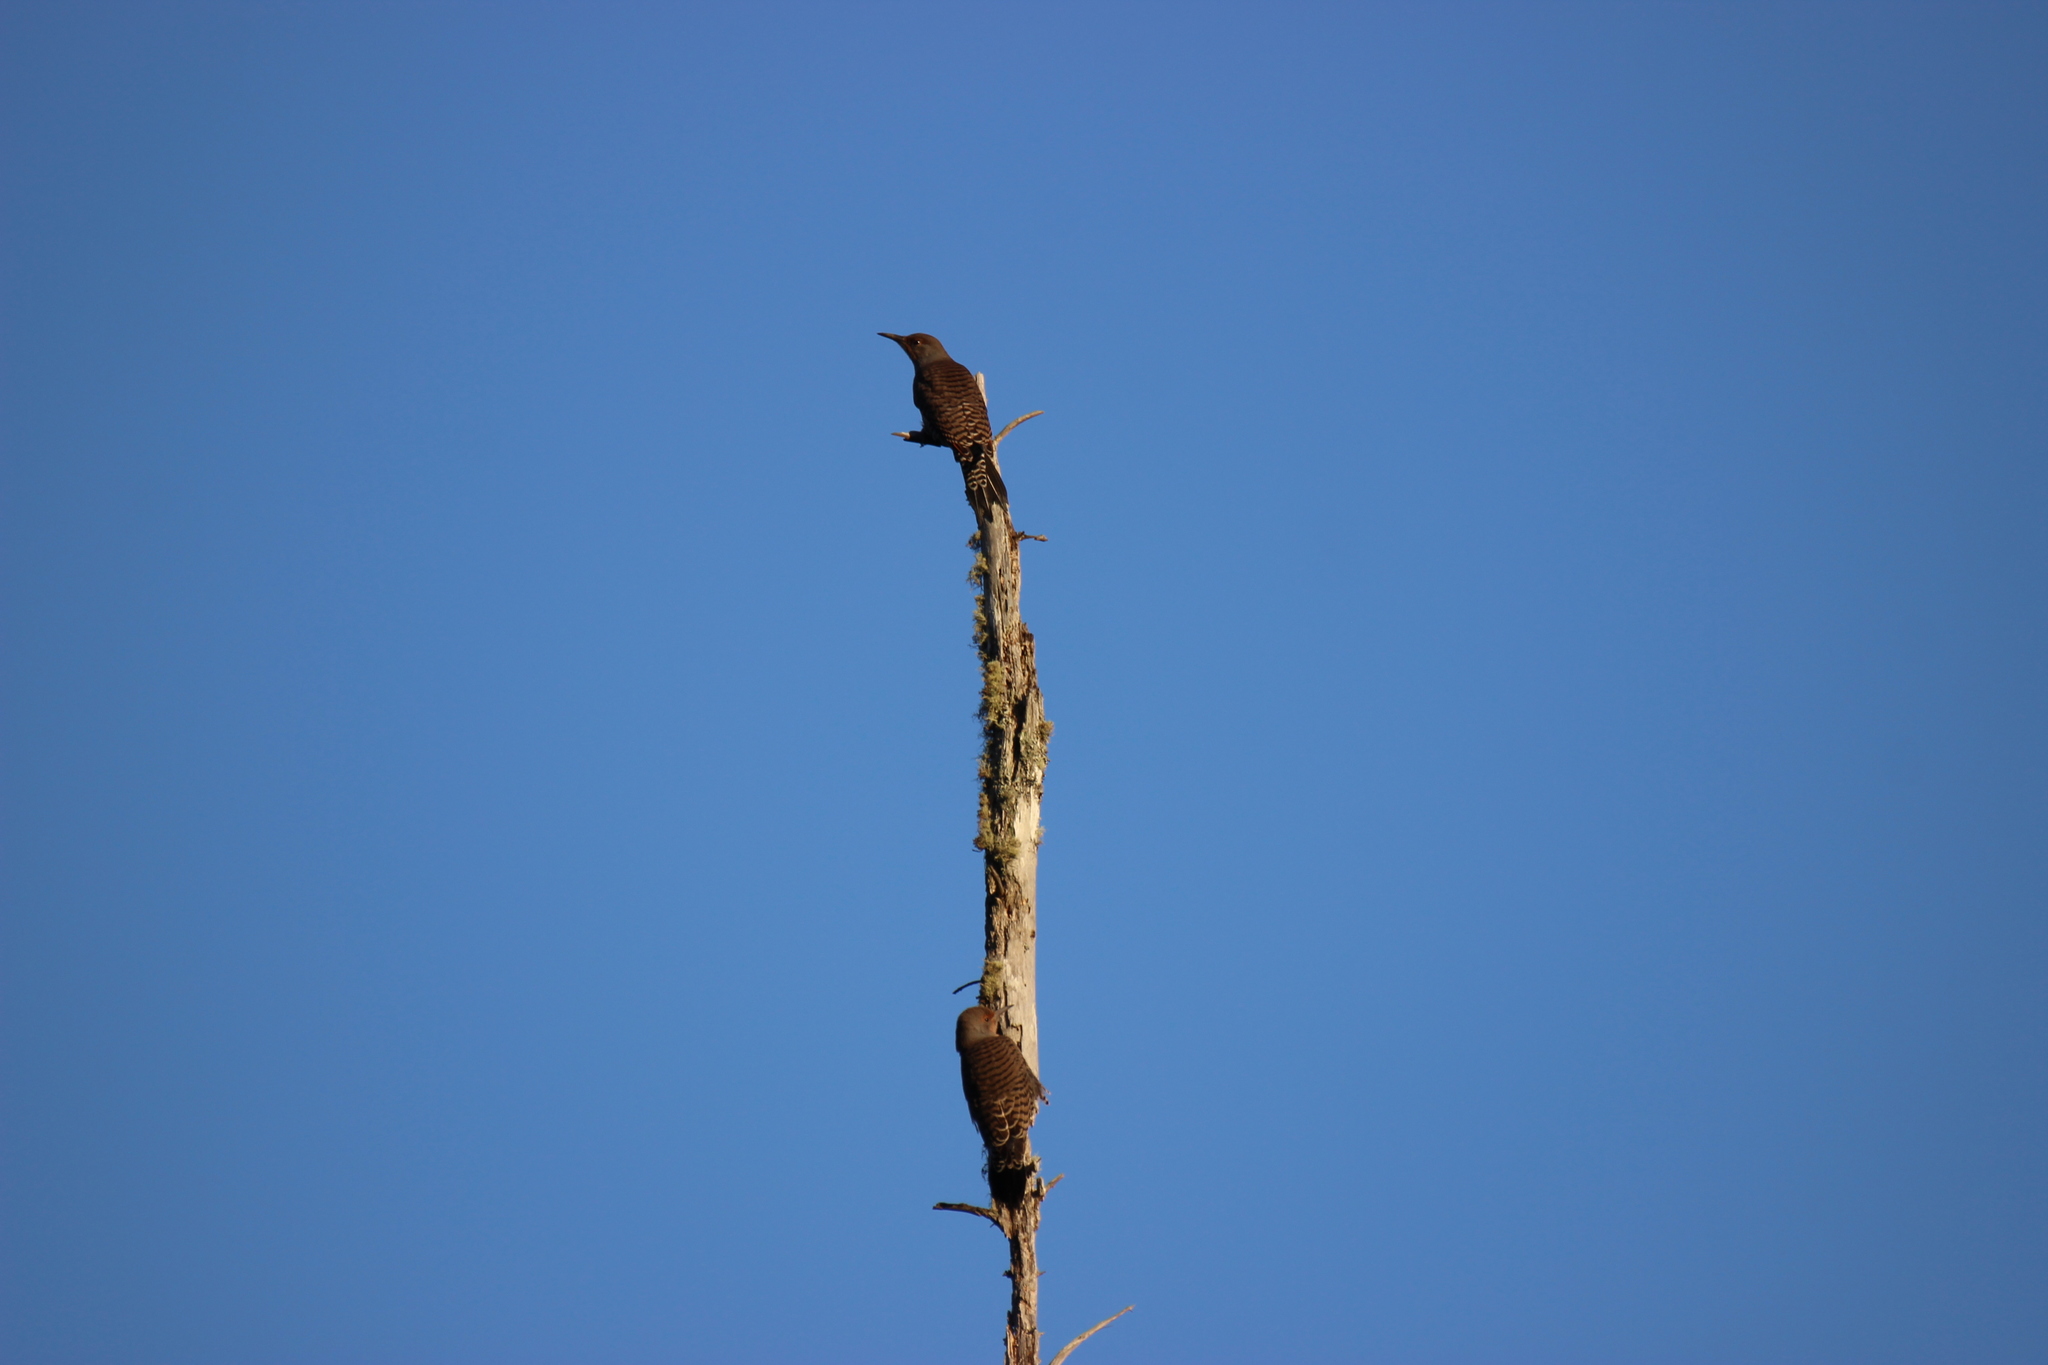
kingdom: Animalia
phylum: Chordata
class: Aves
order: Piciformes
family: Picidae
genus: Colaptes
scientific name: Colaptes auratus
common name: Northern flicker
